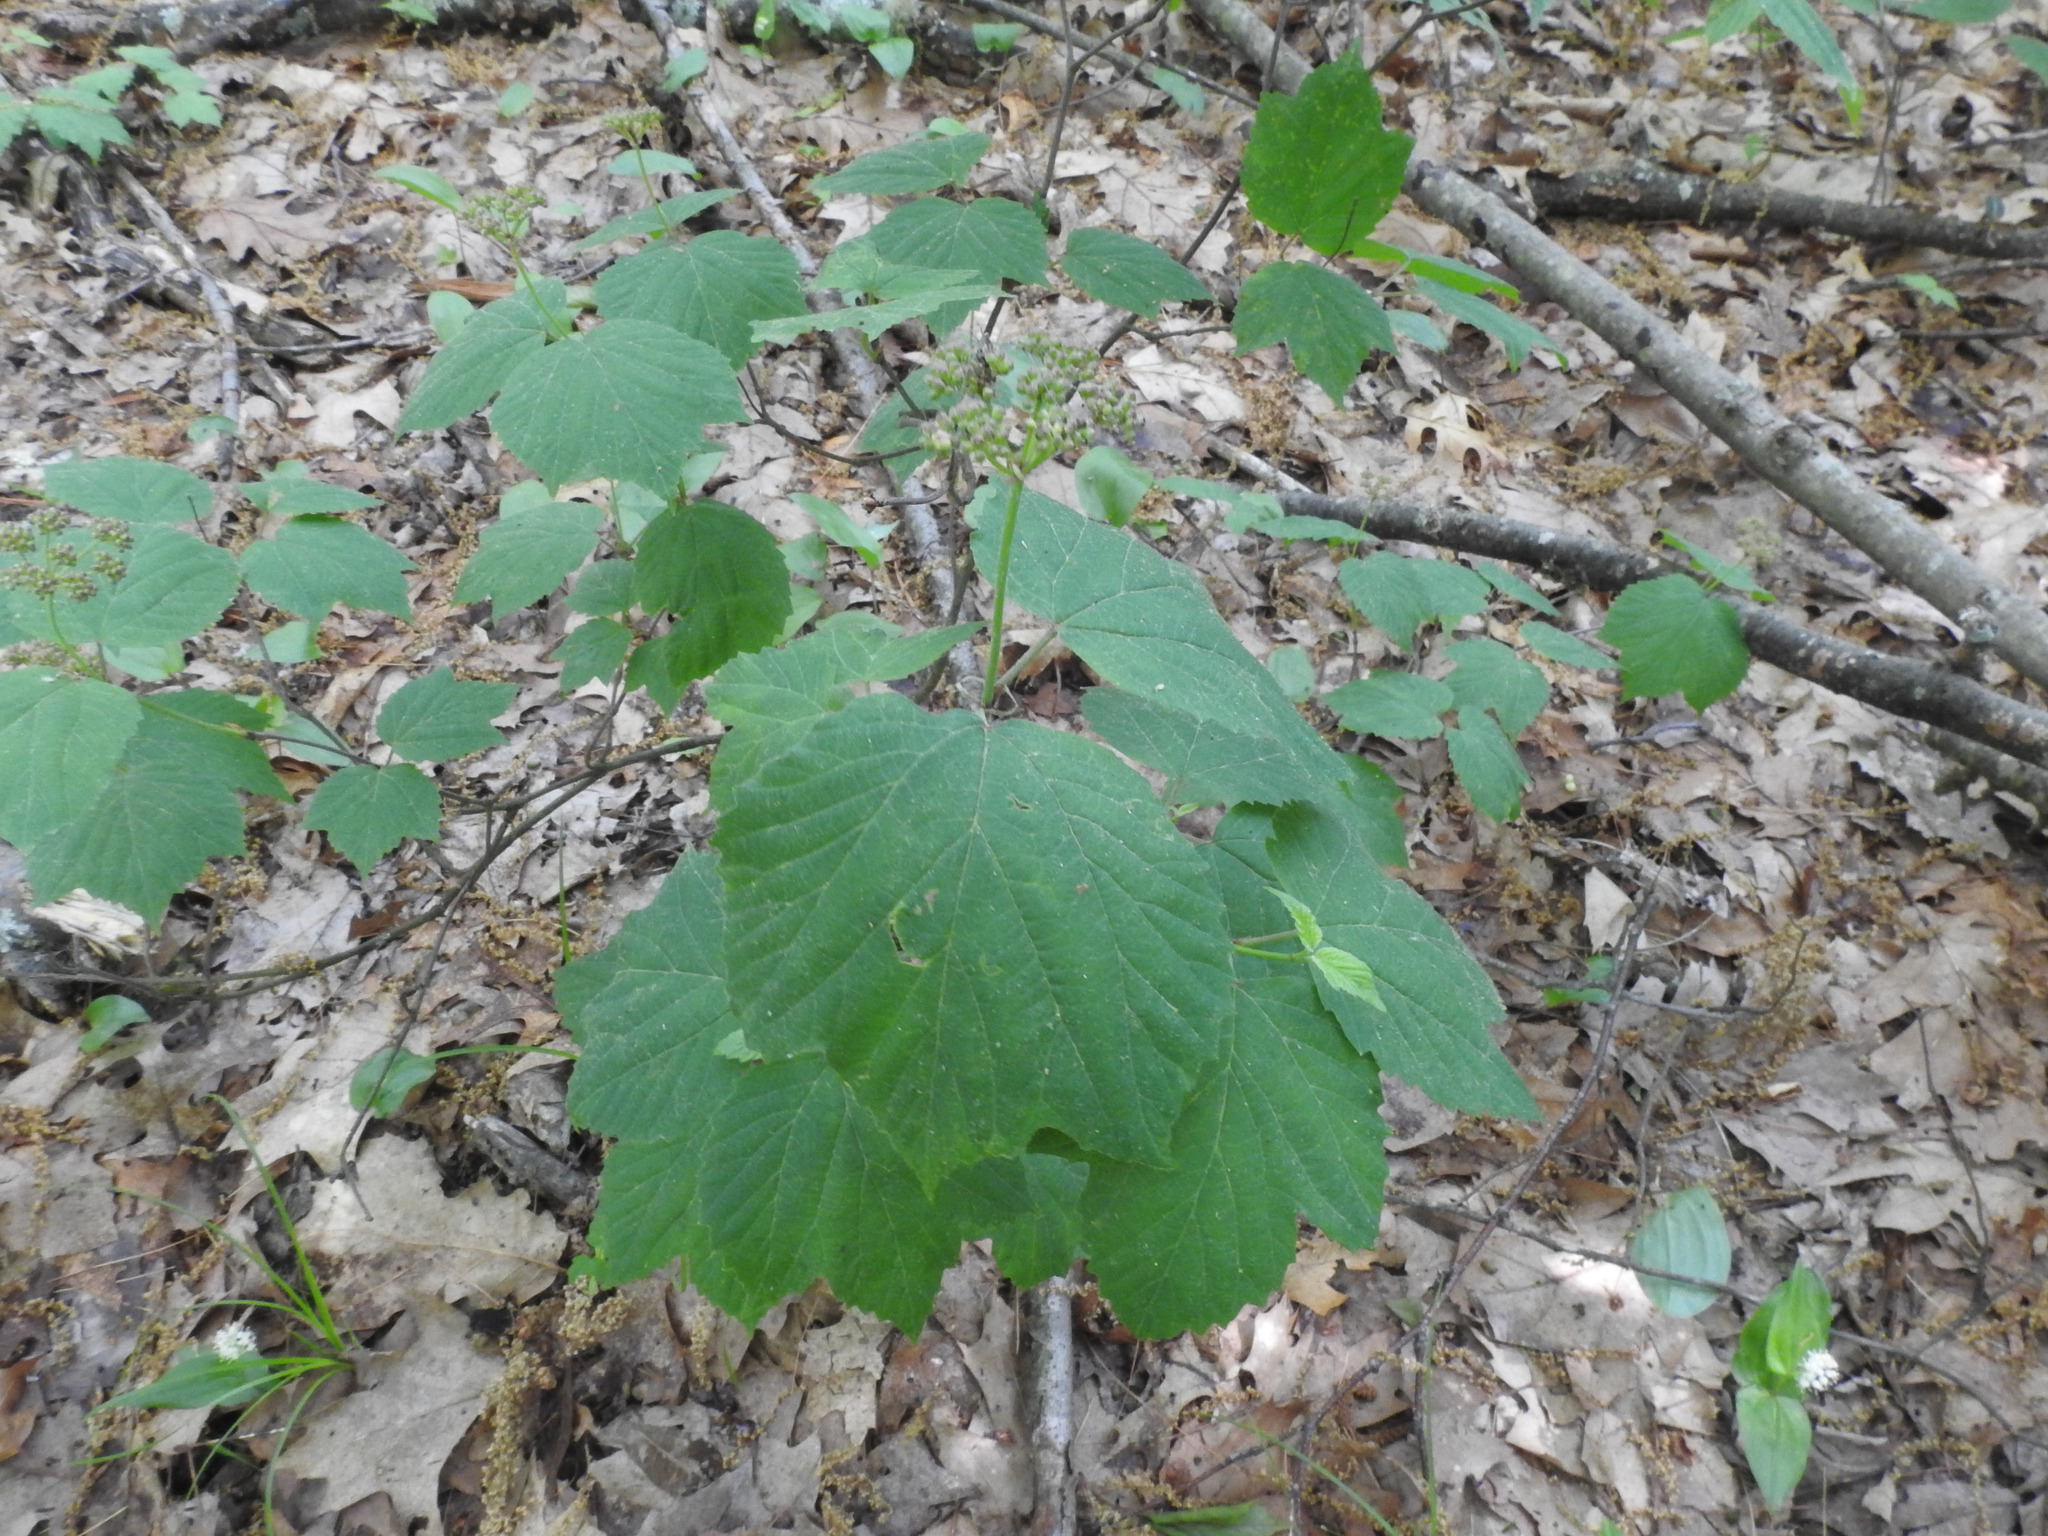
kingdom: Plantae
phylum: Tracheophyta
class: Magnoliopsida
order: Dipsacales
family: Viburnaceae
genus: Viburnum
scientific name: Viburnum acerifolium
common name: Dockmackie
